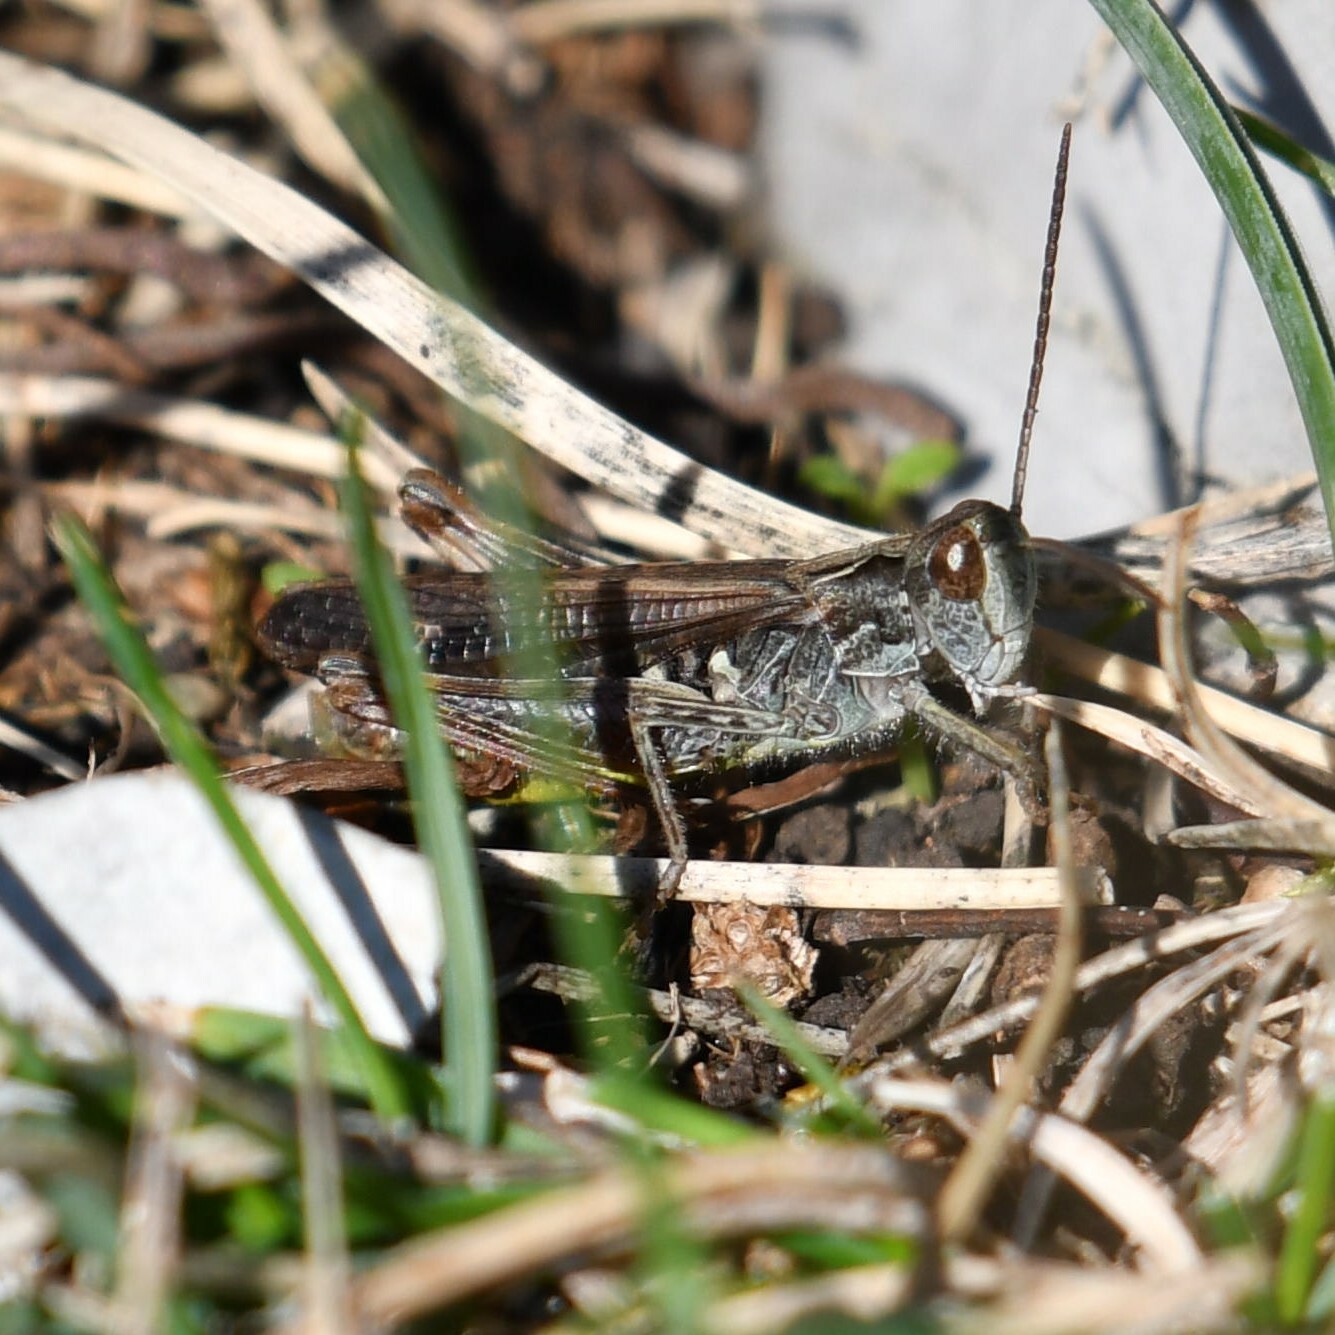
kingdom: Animalia
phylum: Arthropoda
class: Insecta
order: Orthoptera
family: Acrididae
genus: Chorthippus
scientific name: Chorthippus biguttulus
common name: Bow-winged grasshopper
